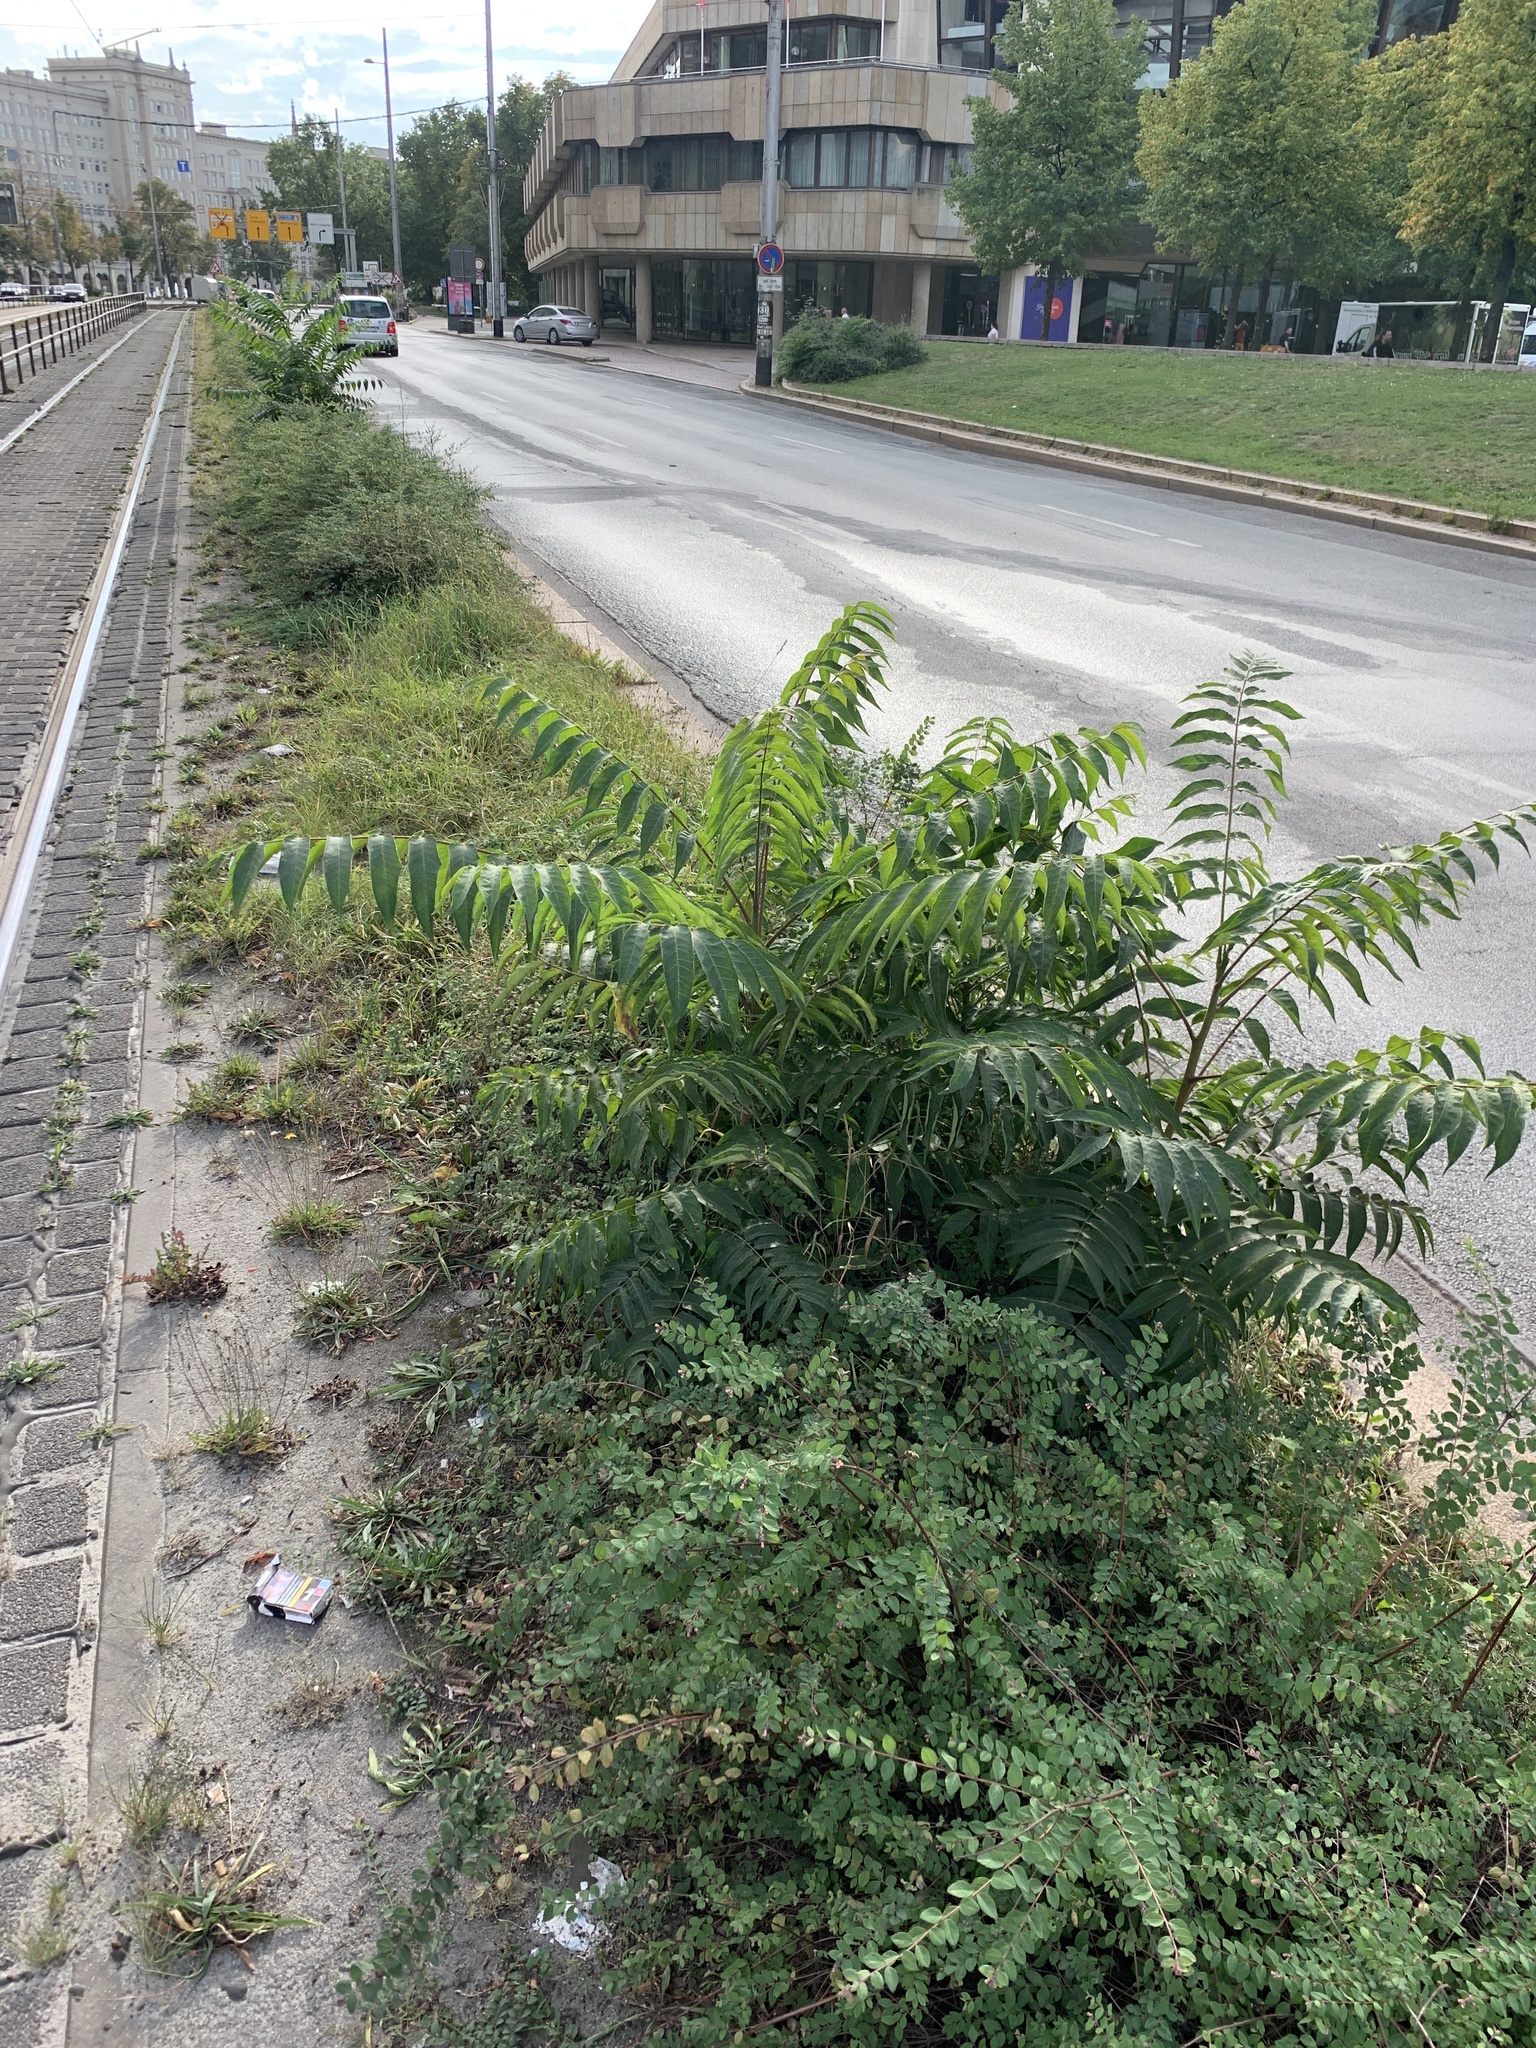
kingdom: Plantae
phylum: Tracheophyta
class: Magnoliopsida
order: Sapindales
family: Simaroubaceae
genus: Ailanthus
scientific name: Ailanthus altissima
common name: Tree-of-heaven
